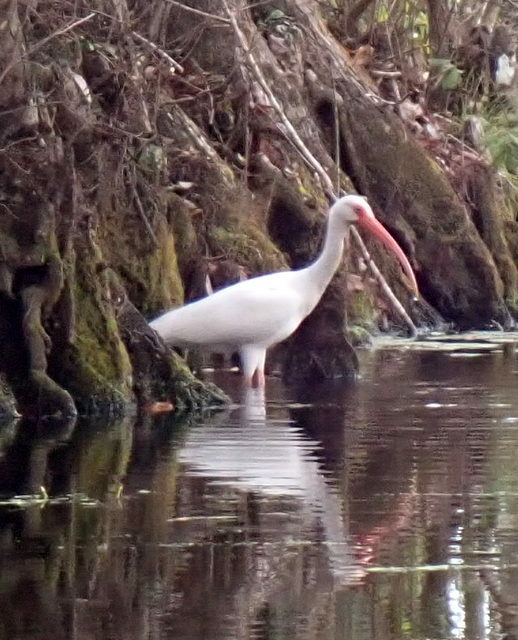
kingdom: Animalia
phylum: Chordata
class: Aves
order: Pelecaniformes
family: Threskiornithidae
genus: Eudocimus
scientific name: Eudocimus albus
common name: White ibis
